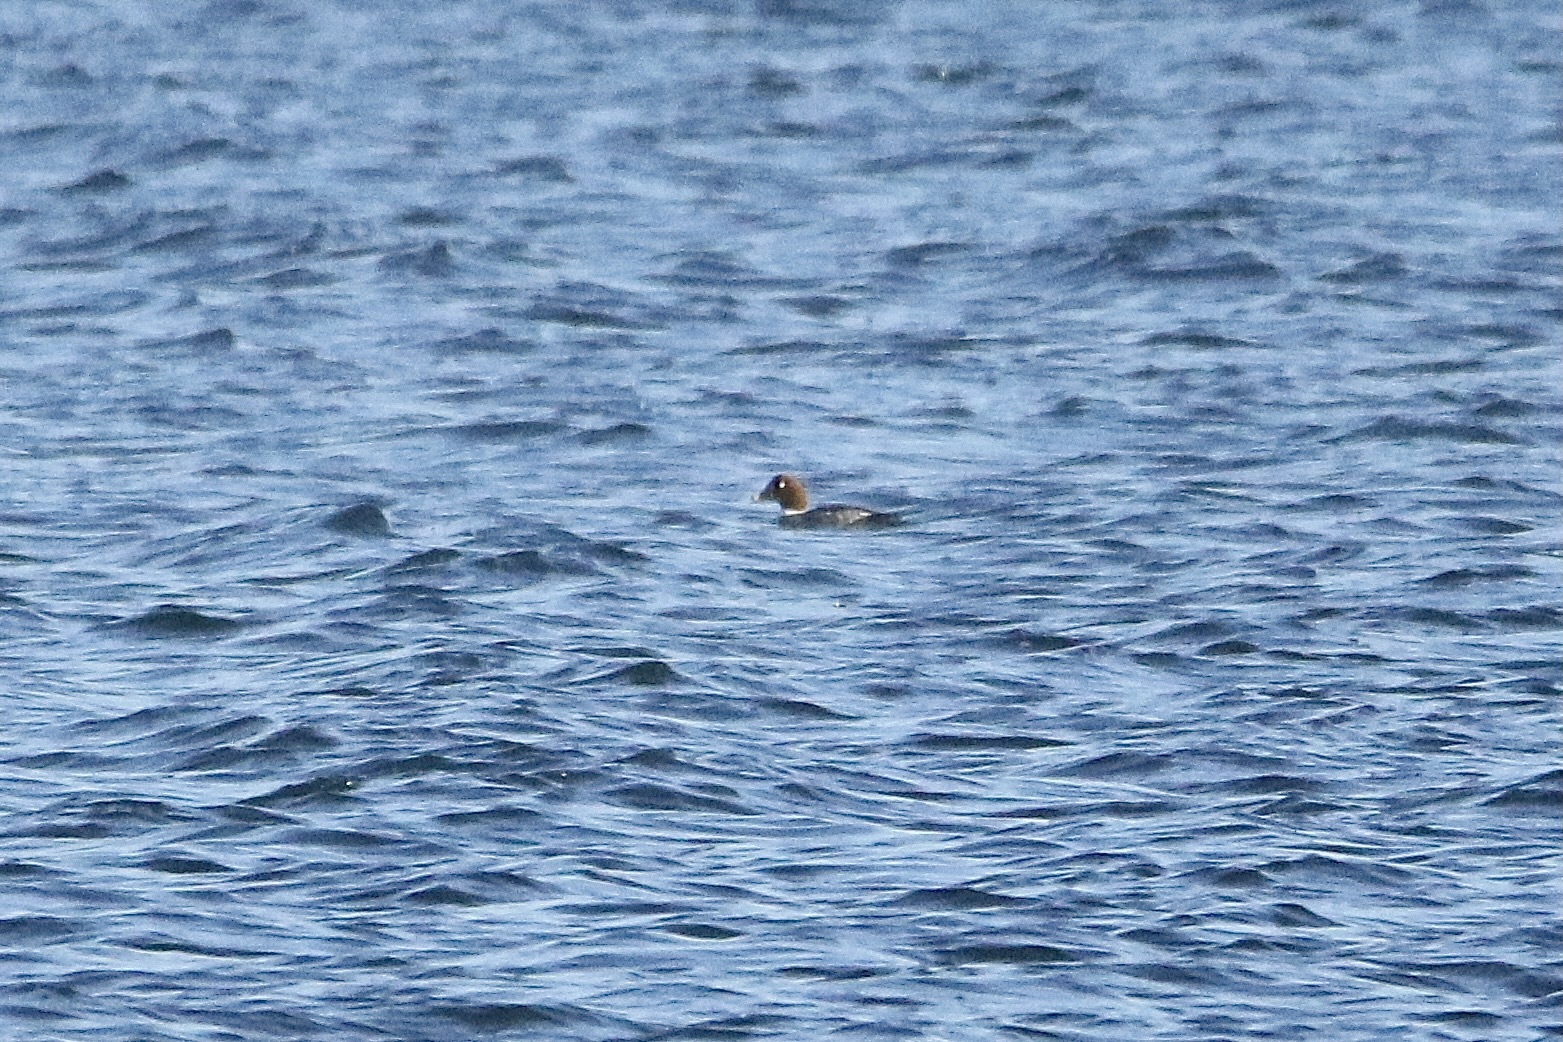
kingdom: Animalia
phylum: Chordata
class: Aves
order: Anseriformes
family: Anatidae
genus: Bucephala
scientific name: Bucephala clangula
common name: Common goldeneye
